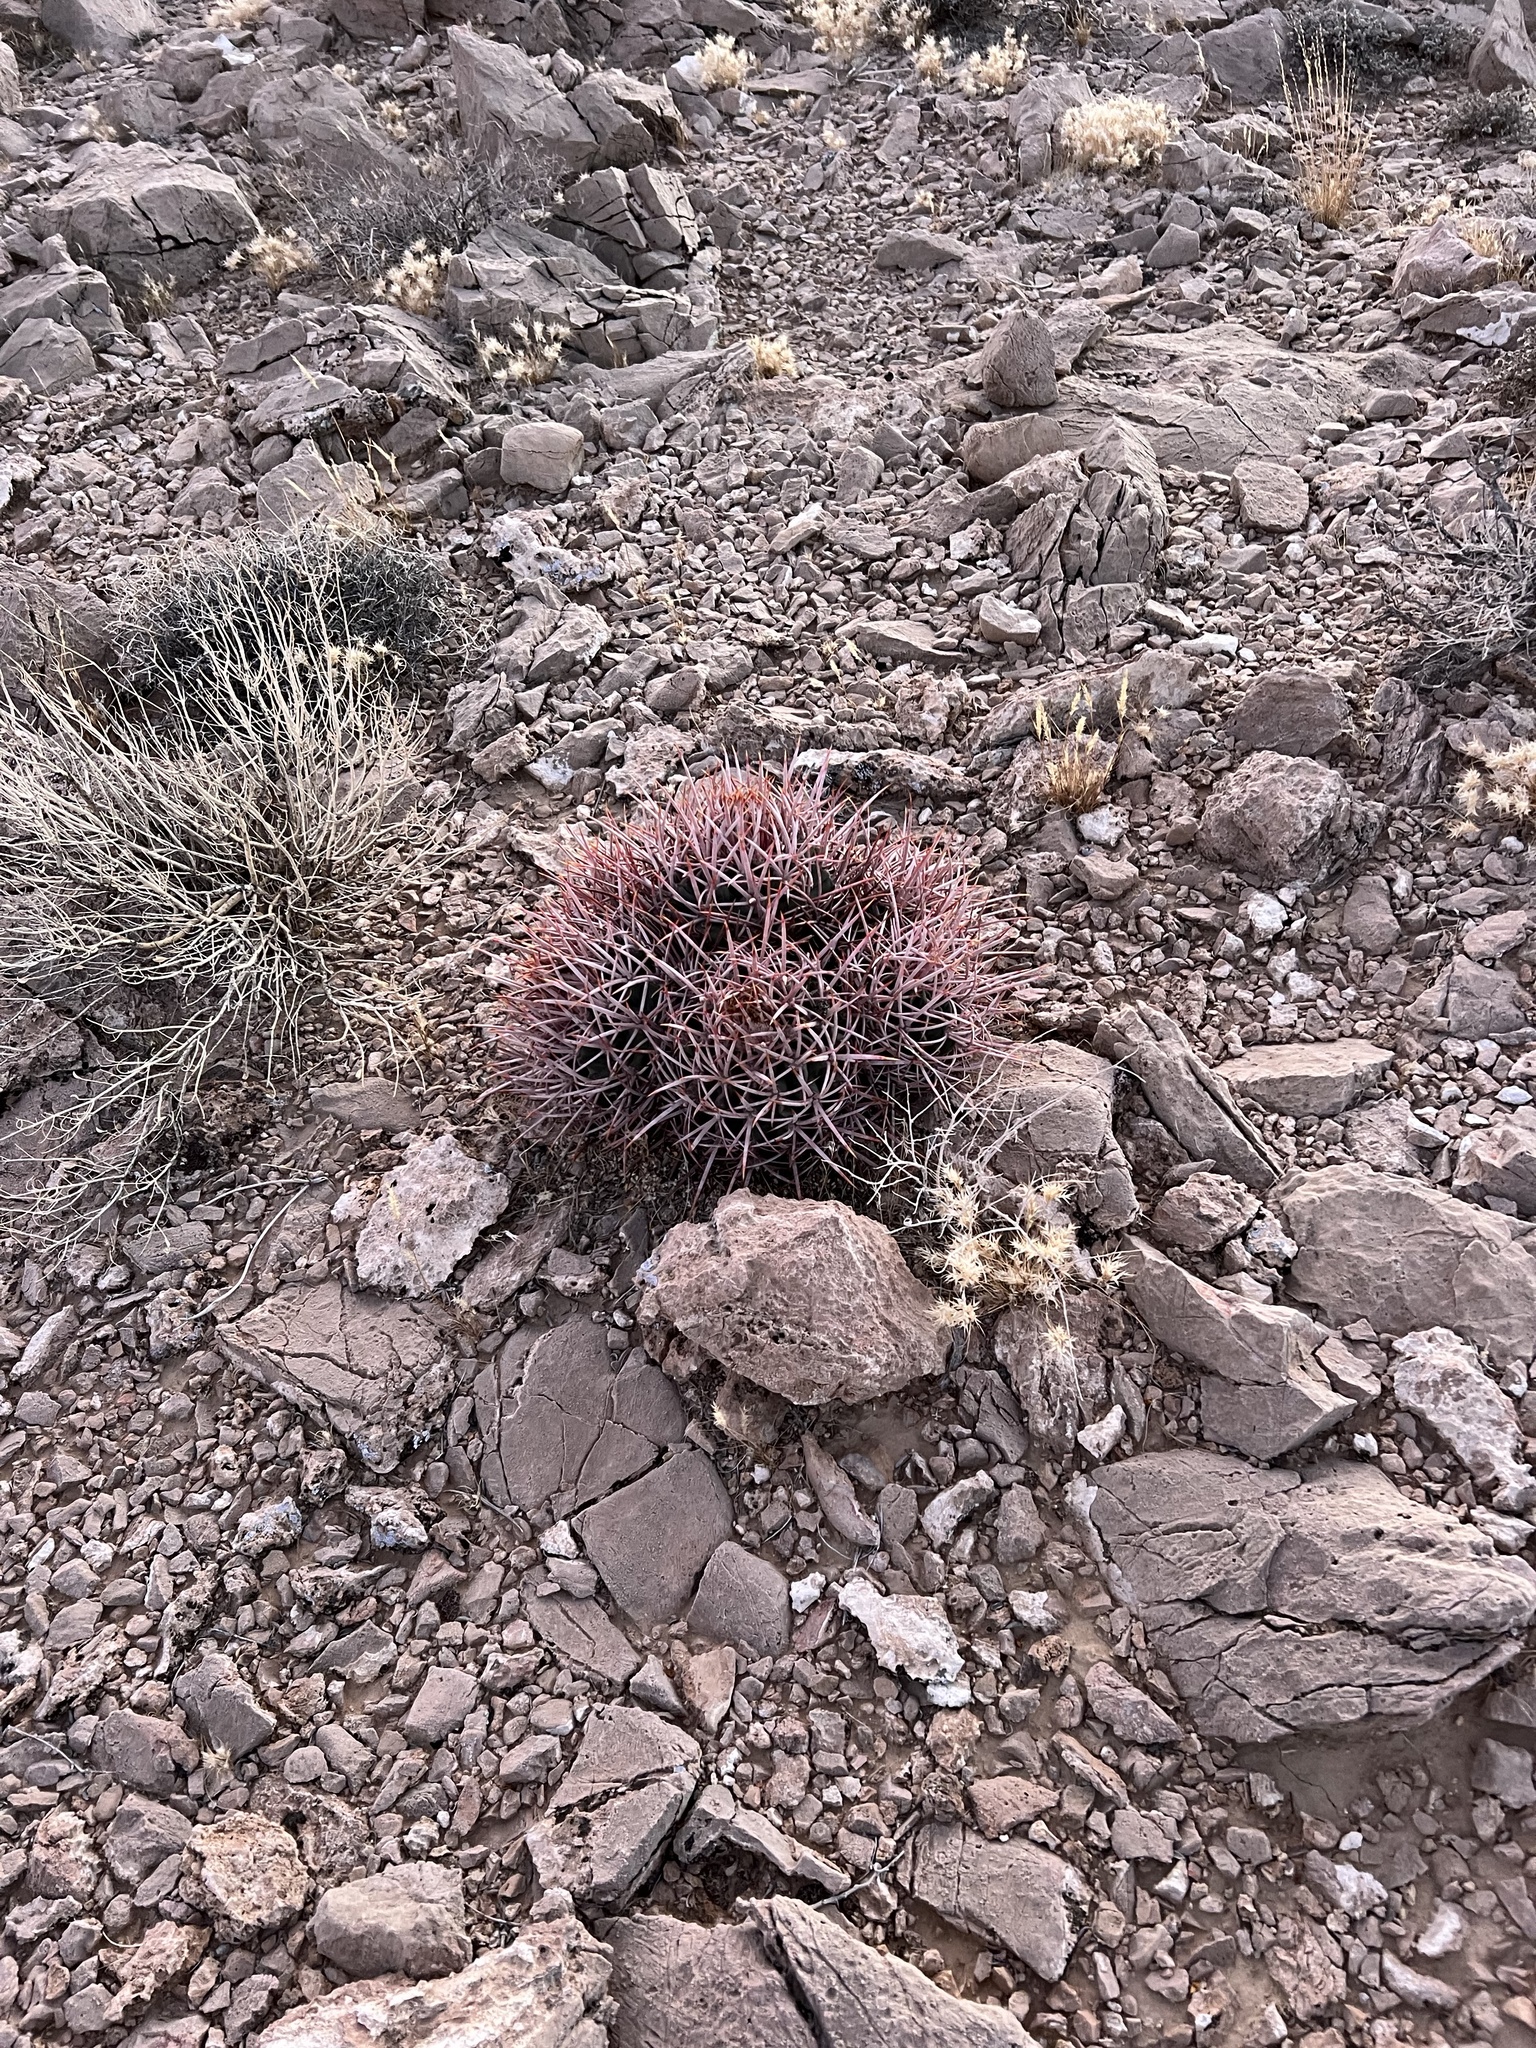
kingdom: Plantae
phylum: Tracheophyta
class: Magnoliopsida
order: Caryophyllales
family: Cactaceae
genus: Echinocactus
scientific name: Echinocactus polycephalus
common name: Cottontop cactus
